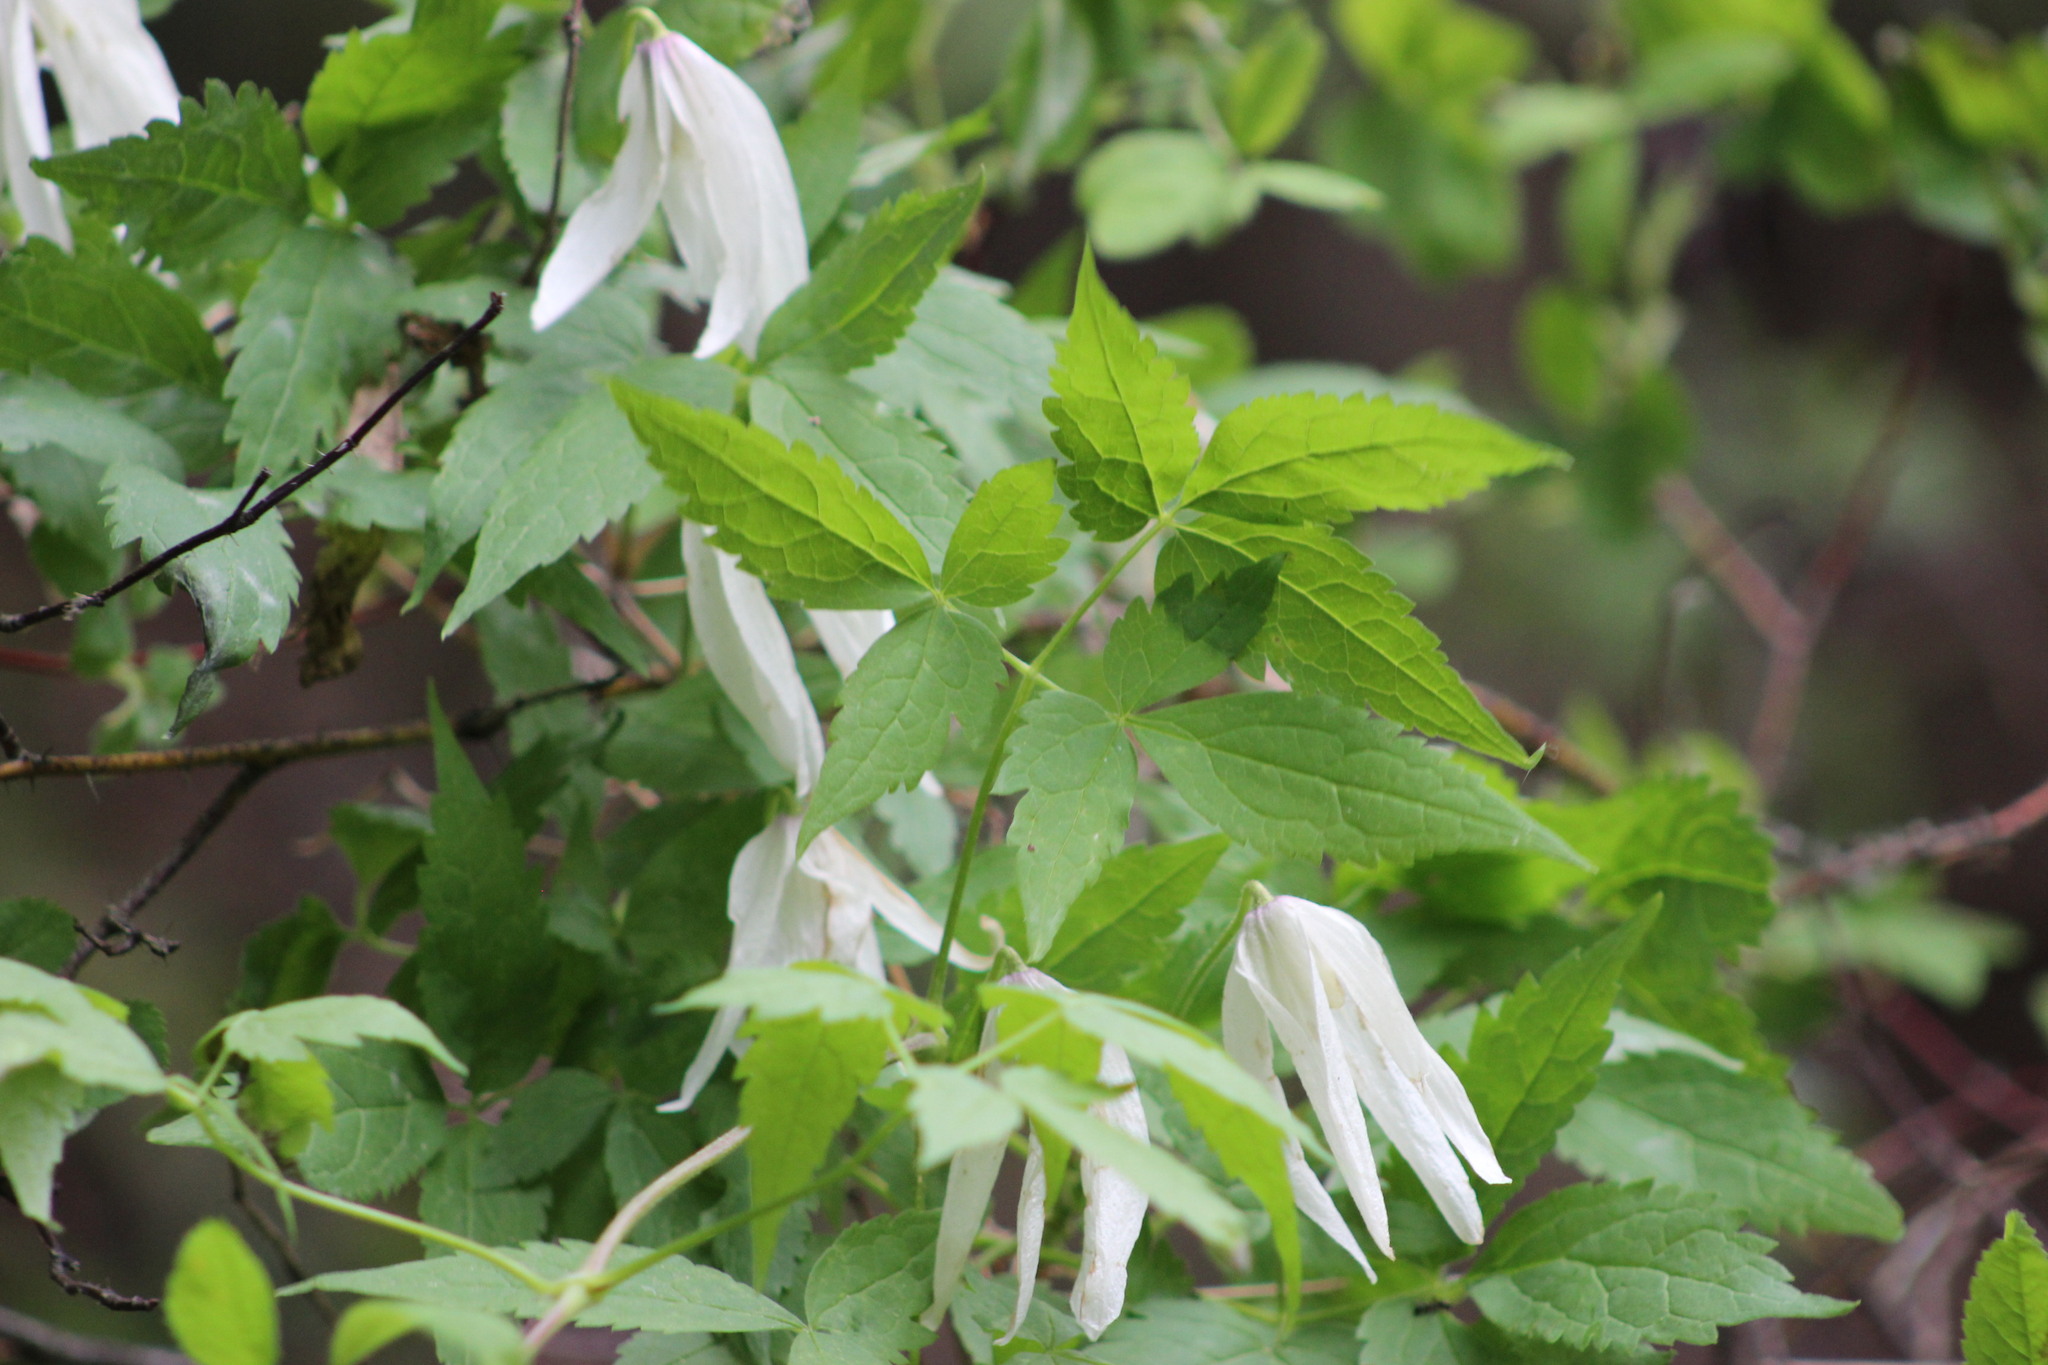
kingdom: Plantae
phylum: Tracheophyta
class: Magnoliopsida
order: Ranunculales
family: Ranunculaceae
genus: Clematis
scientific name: Clematis sibirica
